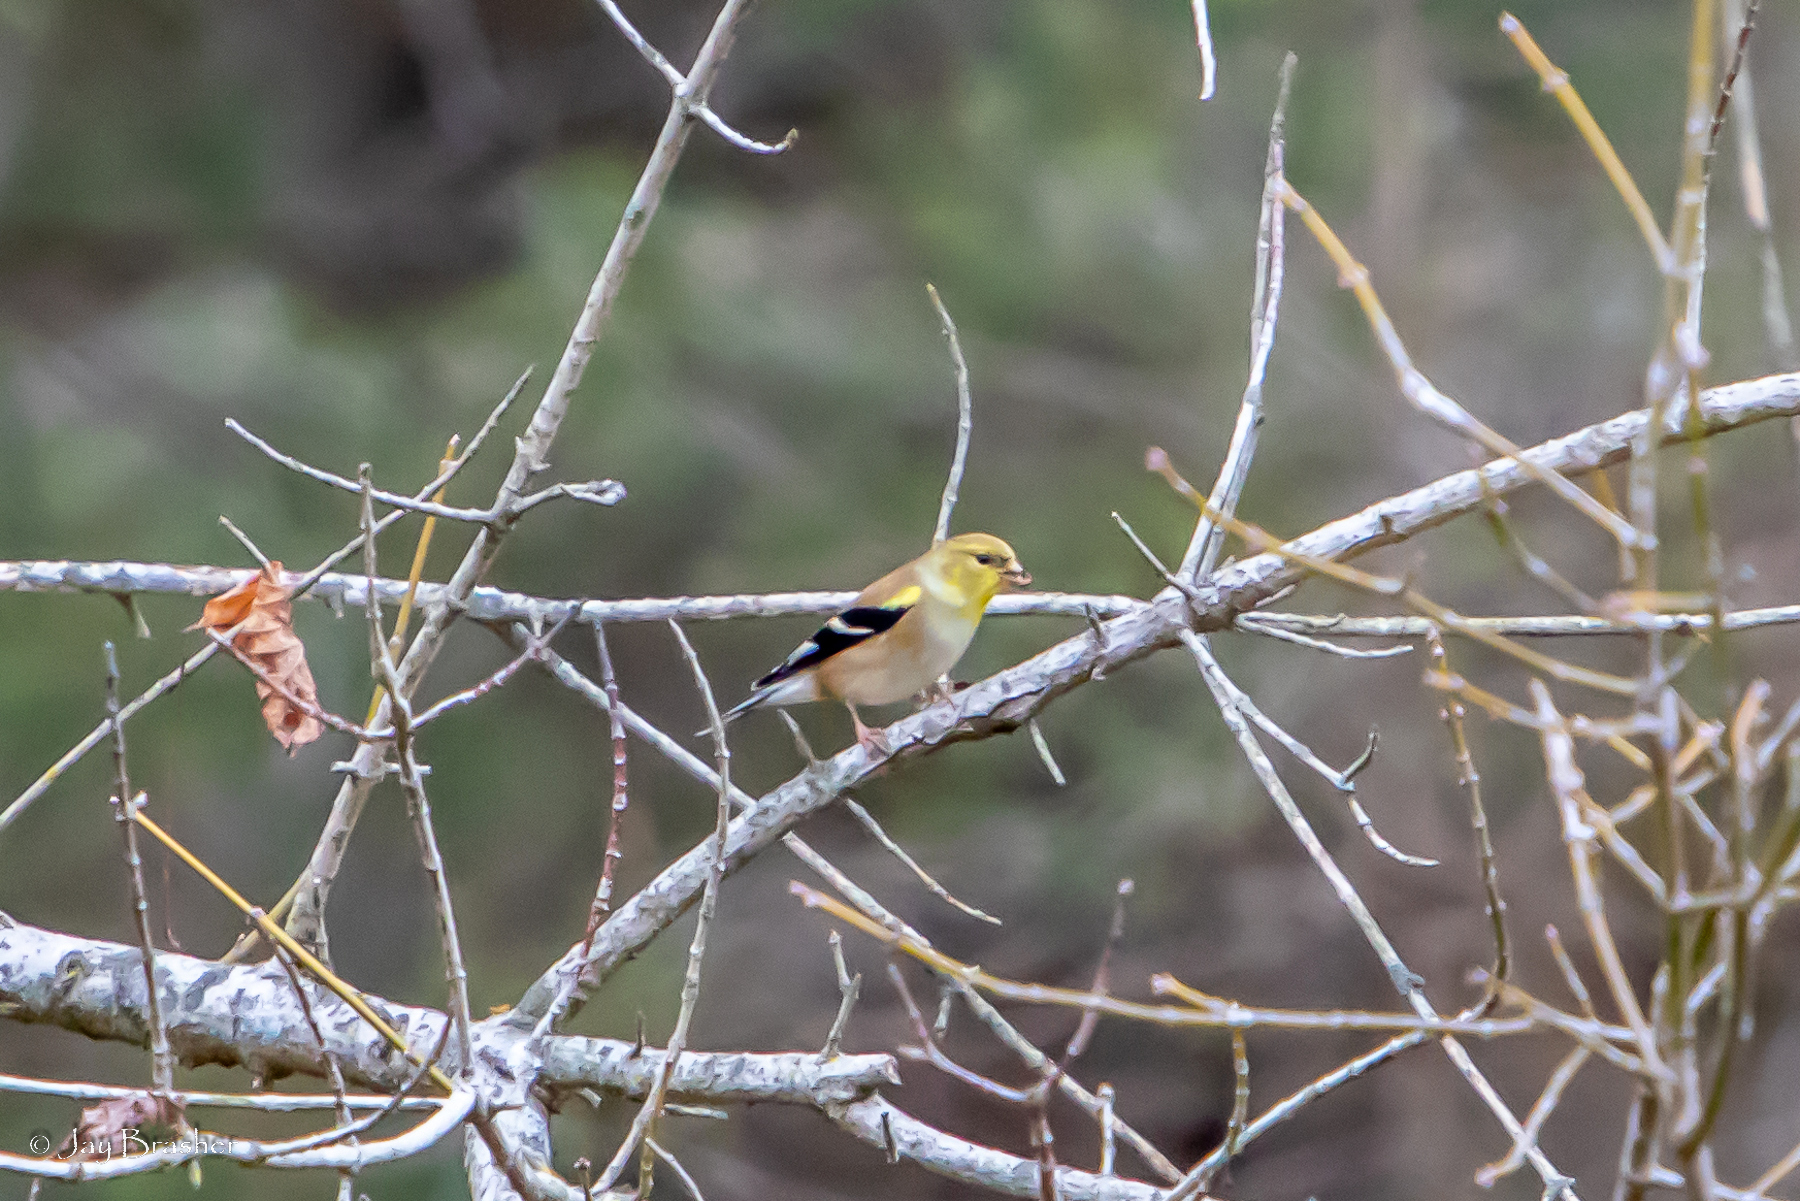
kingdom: Animalia
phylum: Chordata
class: Aves
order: Passeriformes
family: Fringillidae
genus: Spinus
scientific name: Spinus tristis
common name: American goldfinch
